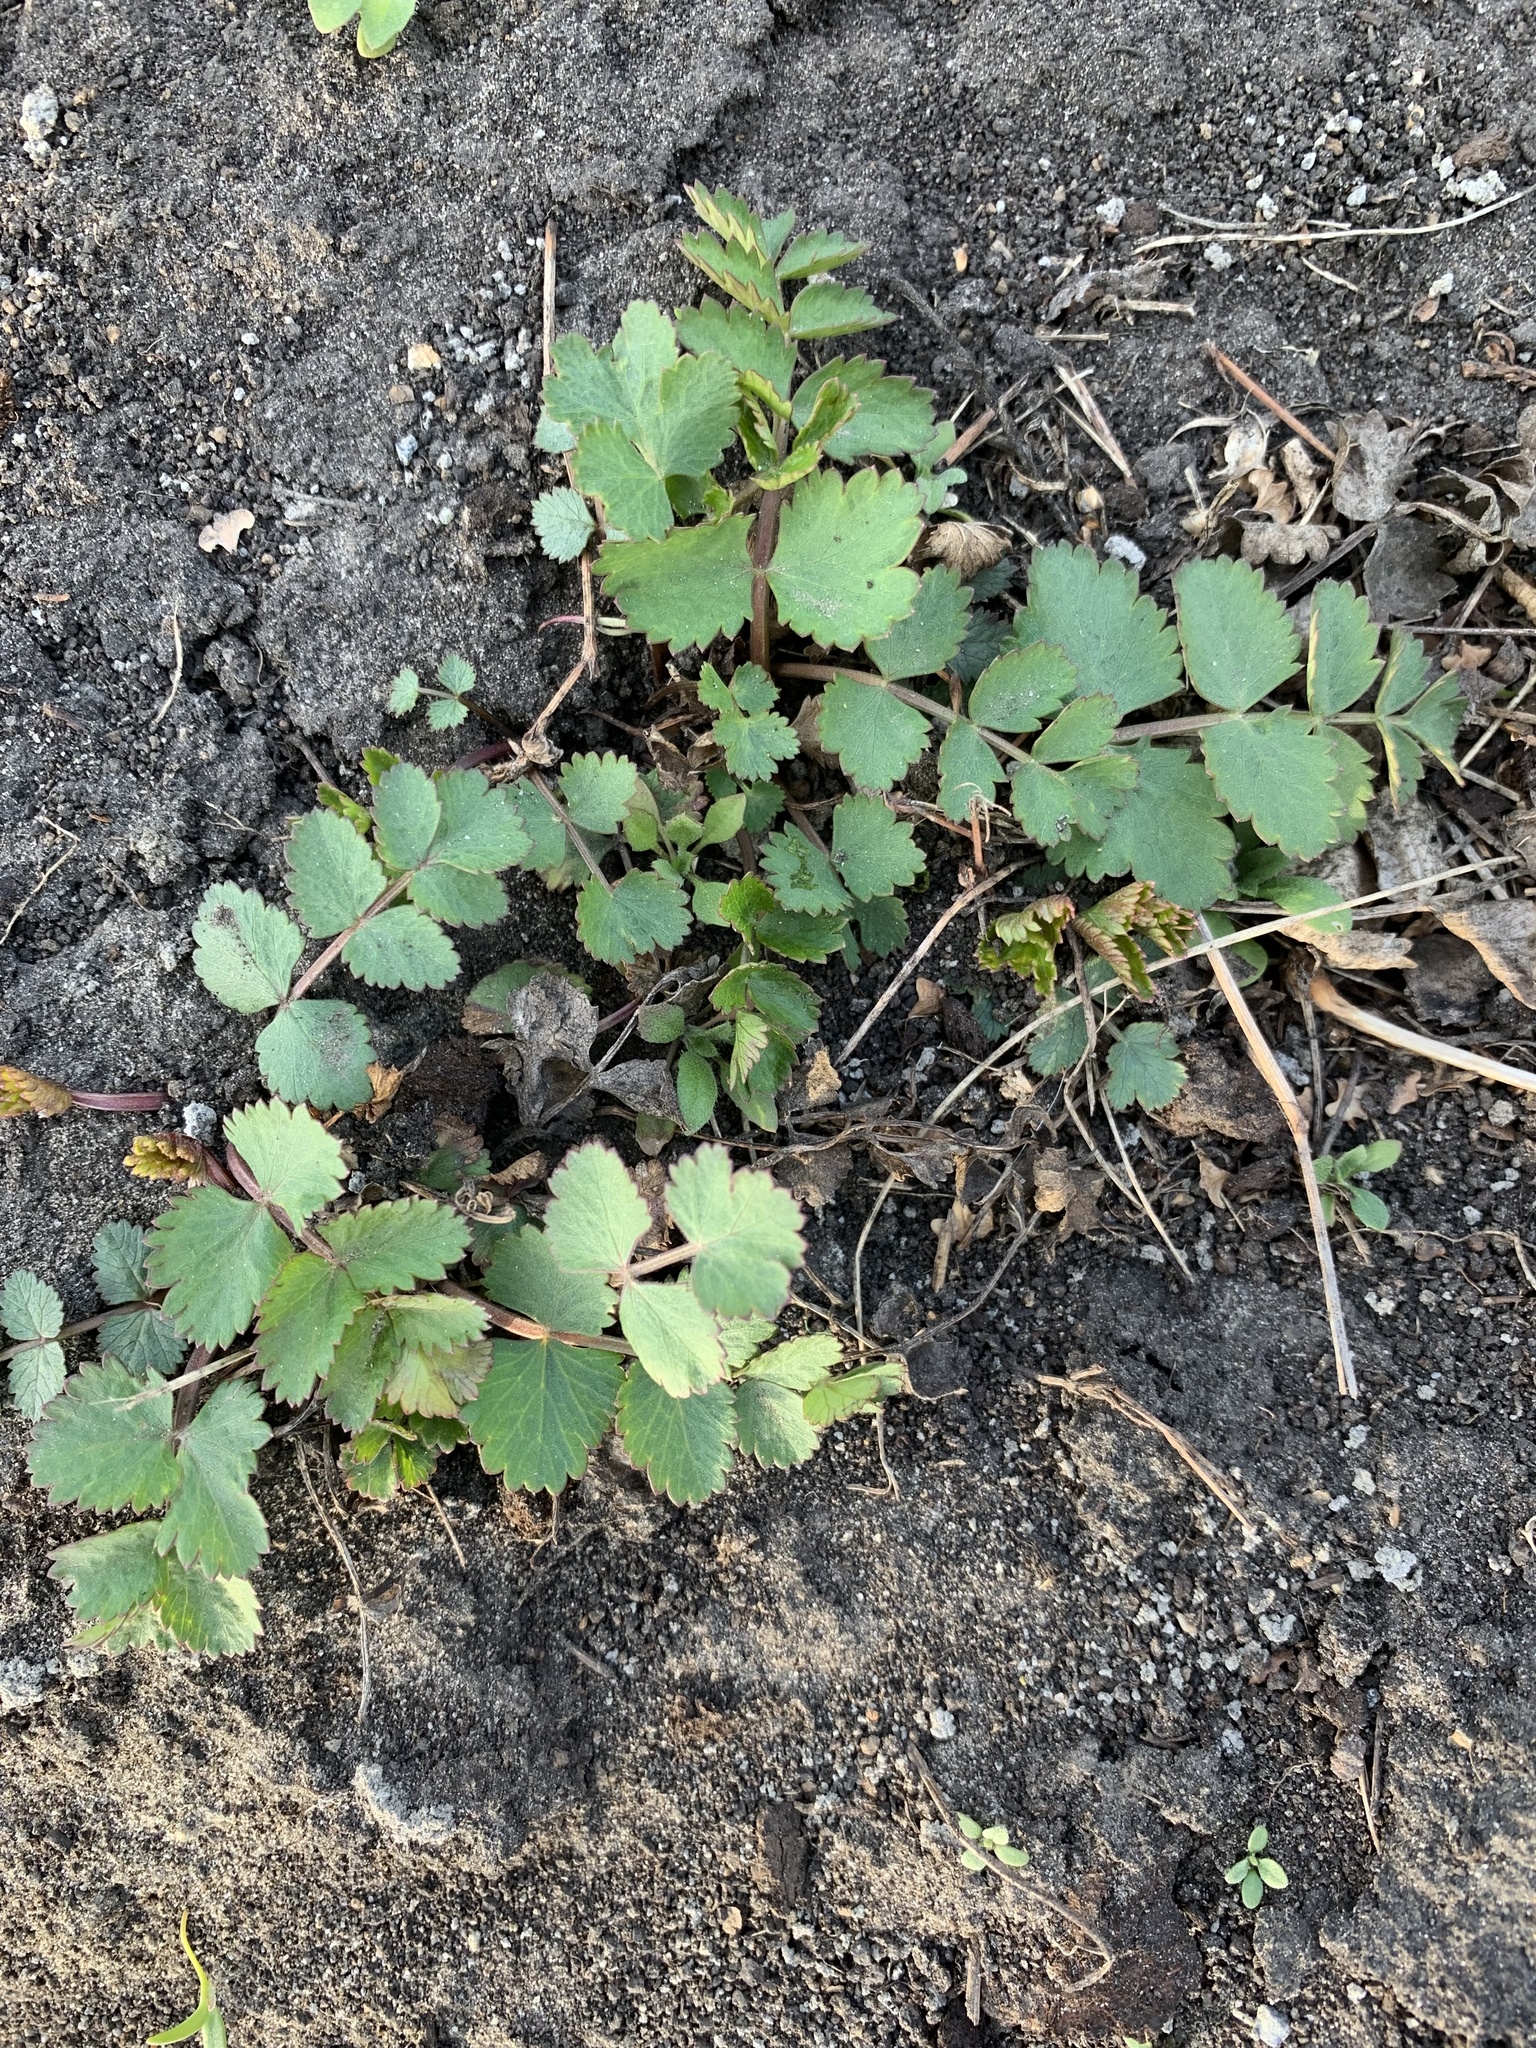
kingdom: Plantae
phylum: Tracheophyta
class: Magnoliopsida
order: Apiales
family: Apiaceae
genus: Pimpinella
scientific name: Pimpinella saxifraga
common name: Burnet-saxifrage
